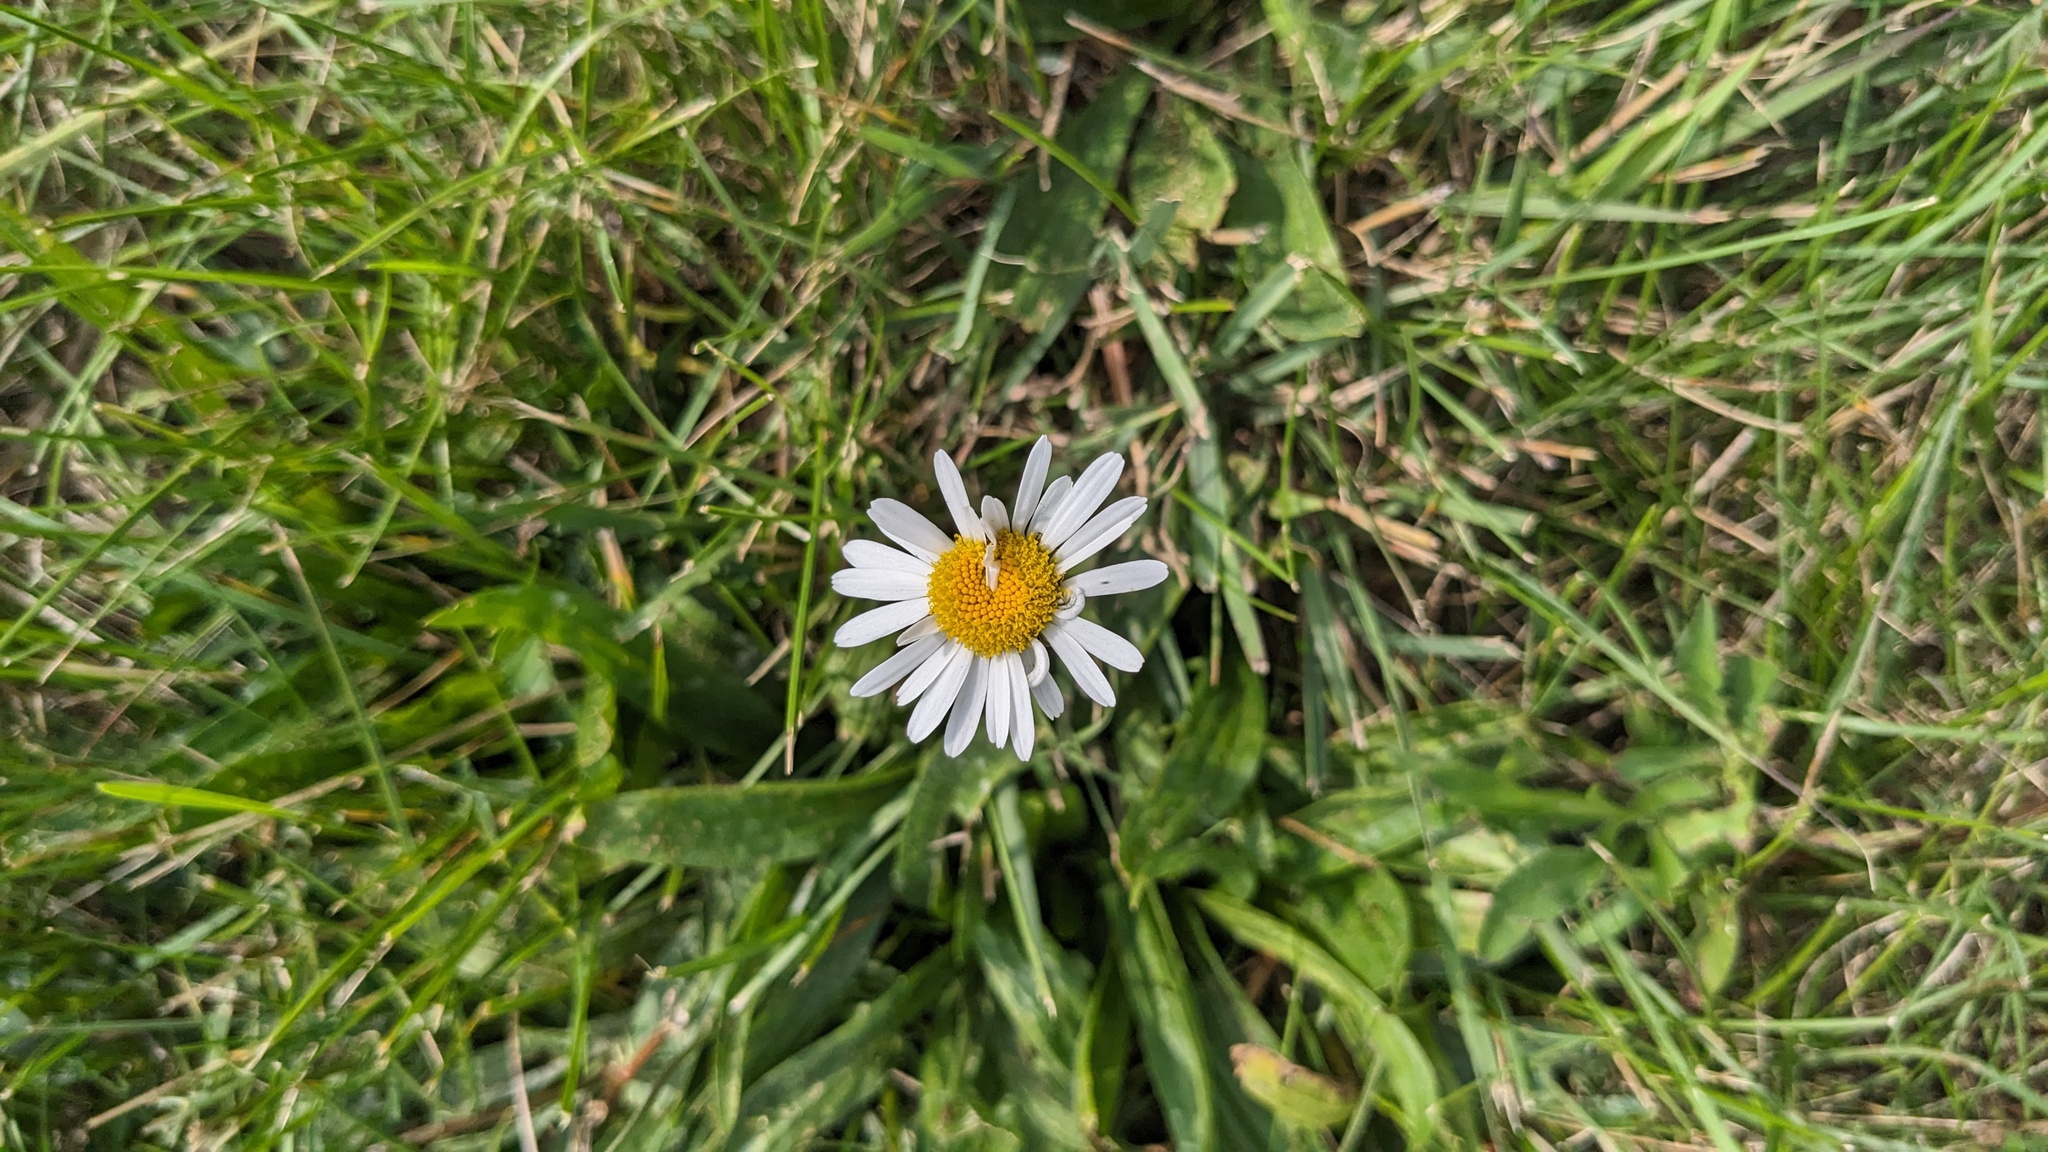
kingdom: Plantae
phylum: Tracheophyta
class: Magnoliopsida
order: Asterales
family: Asteraceae
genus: Leucanthemum
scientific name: Leucanthemum vulgare
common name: Oxeye daisy
